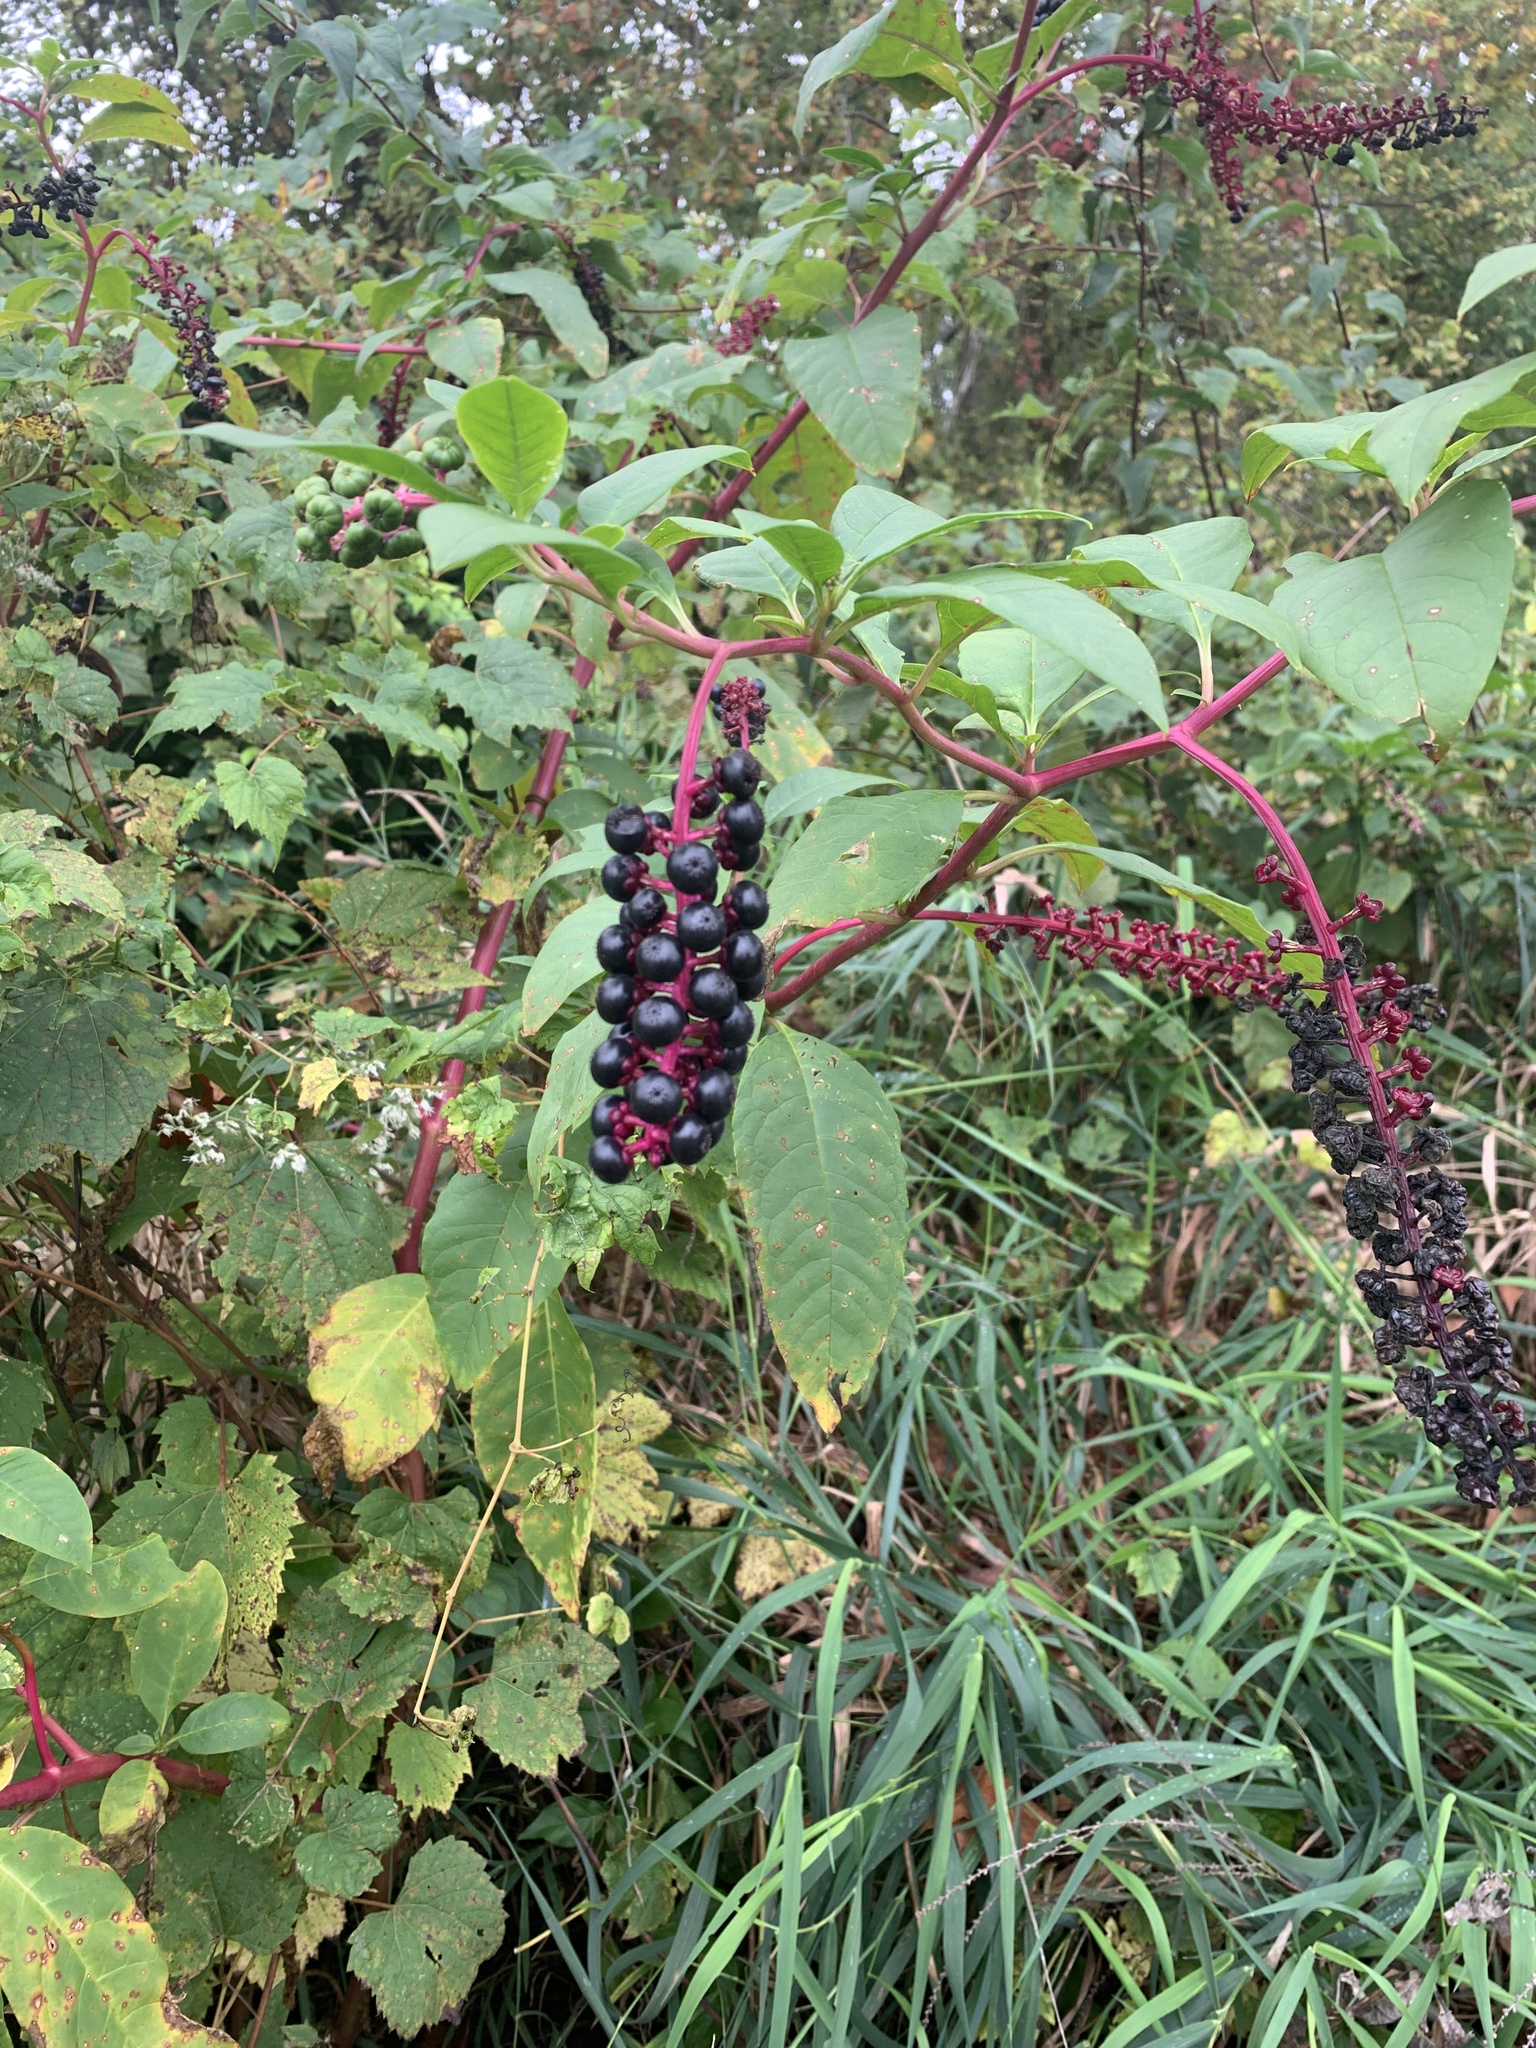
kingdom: Plantae
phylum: Tracheophyta
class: Magnoliopsida
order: Caryophyllales
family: Phytolaccaceae
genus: Phytolacca
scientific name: Phytolacca americana
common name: American pokeweed
